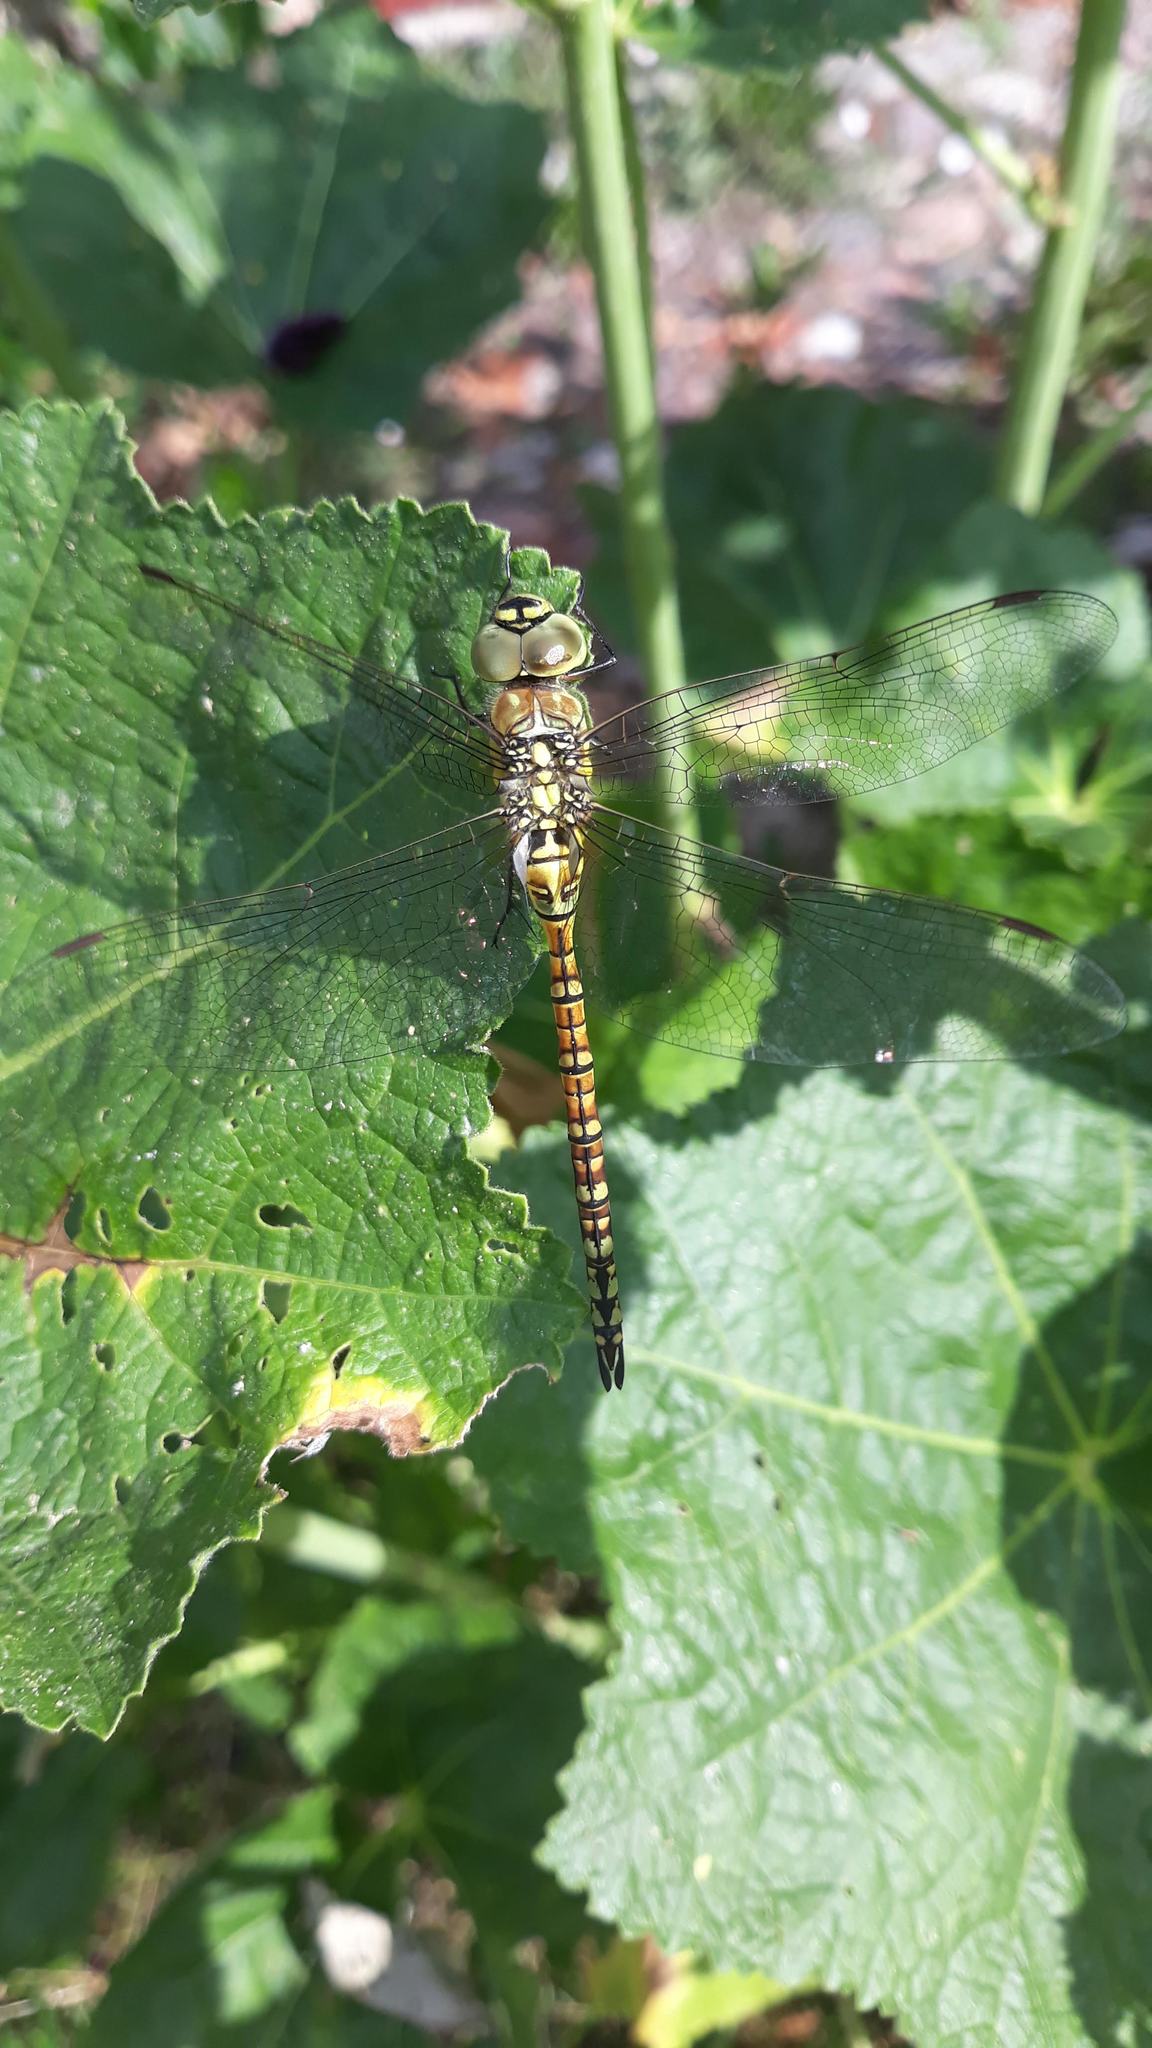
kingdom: Animalia
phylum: Arthropoda
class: Insecta
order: Odonata
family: Aeshnidae
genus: Aeshna
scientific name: Aeshna affinis
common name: Southern migrant hawker
